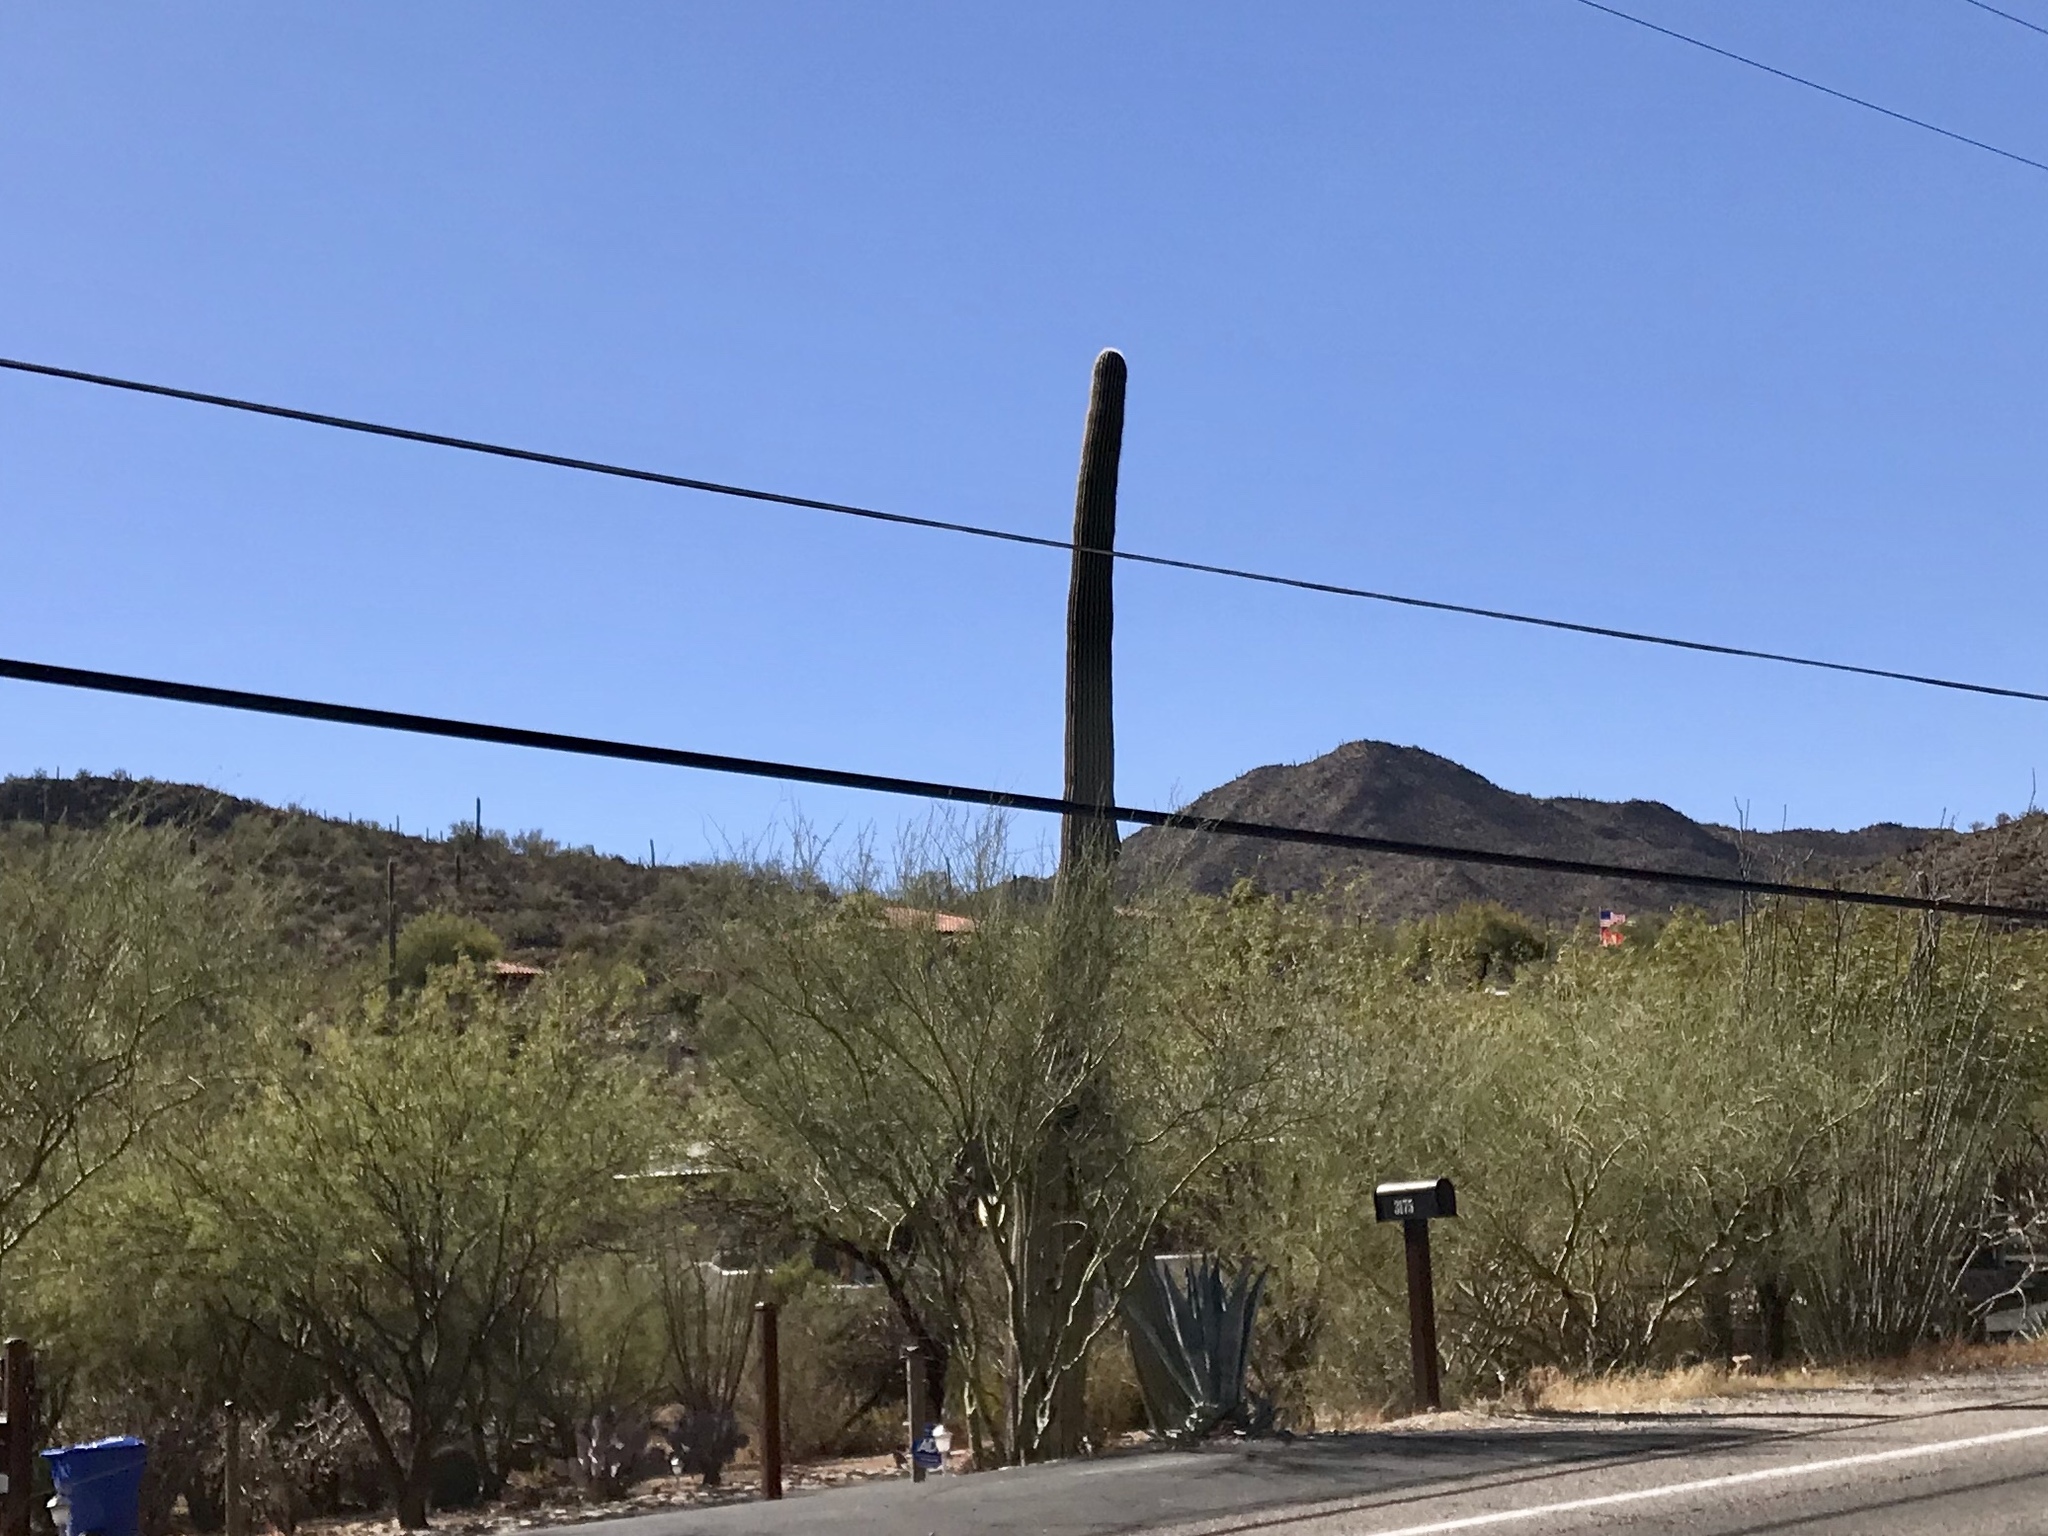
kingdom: Plantae
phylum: Tracheophyta
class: Magnoliopsida
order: Caryophyllales
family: Cactaceae
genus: Carnegiea
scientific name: Carnegiea gigantea
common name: Saguaro
